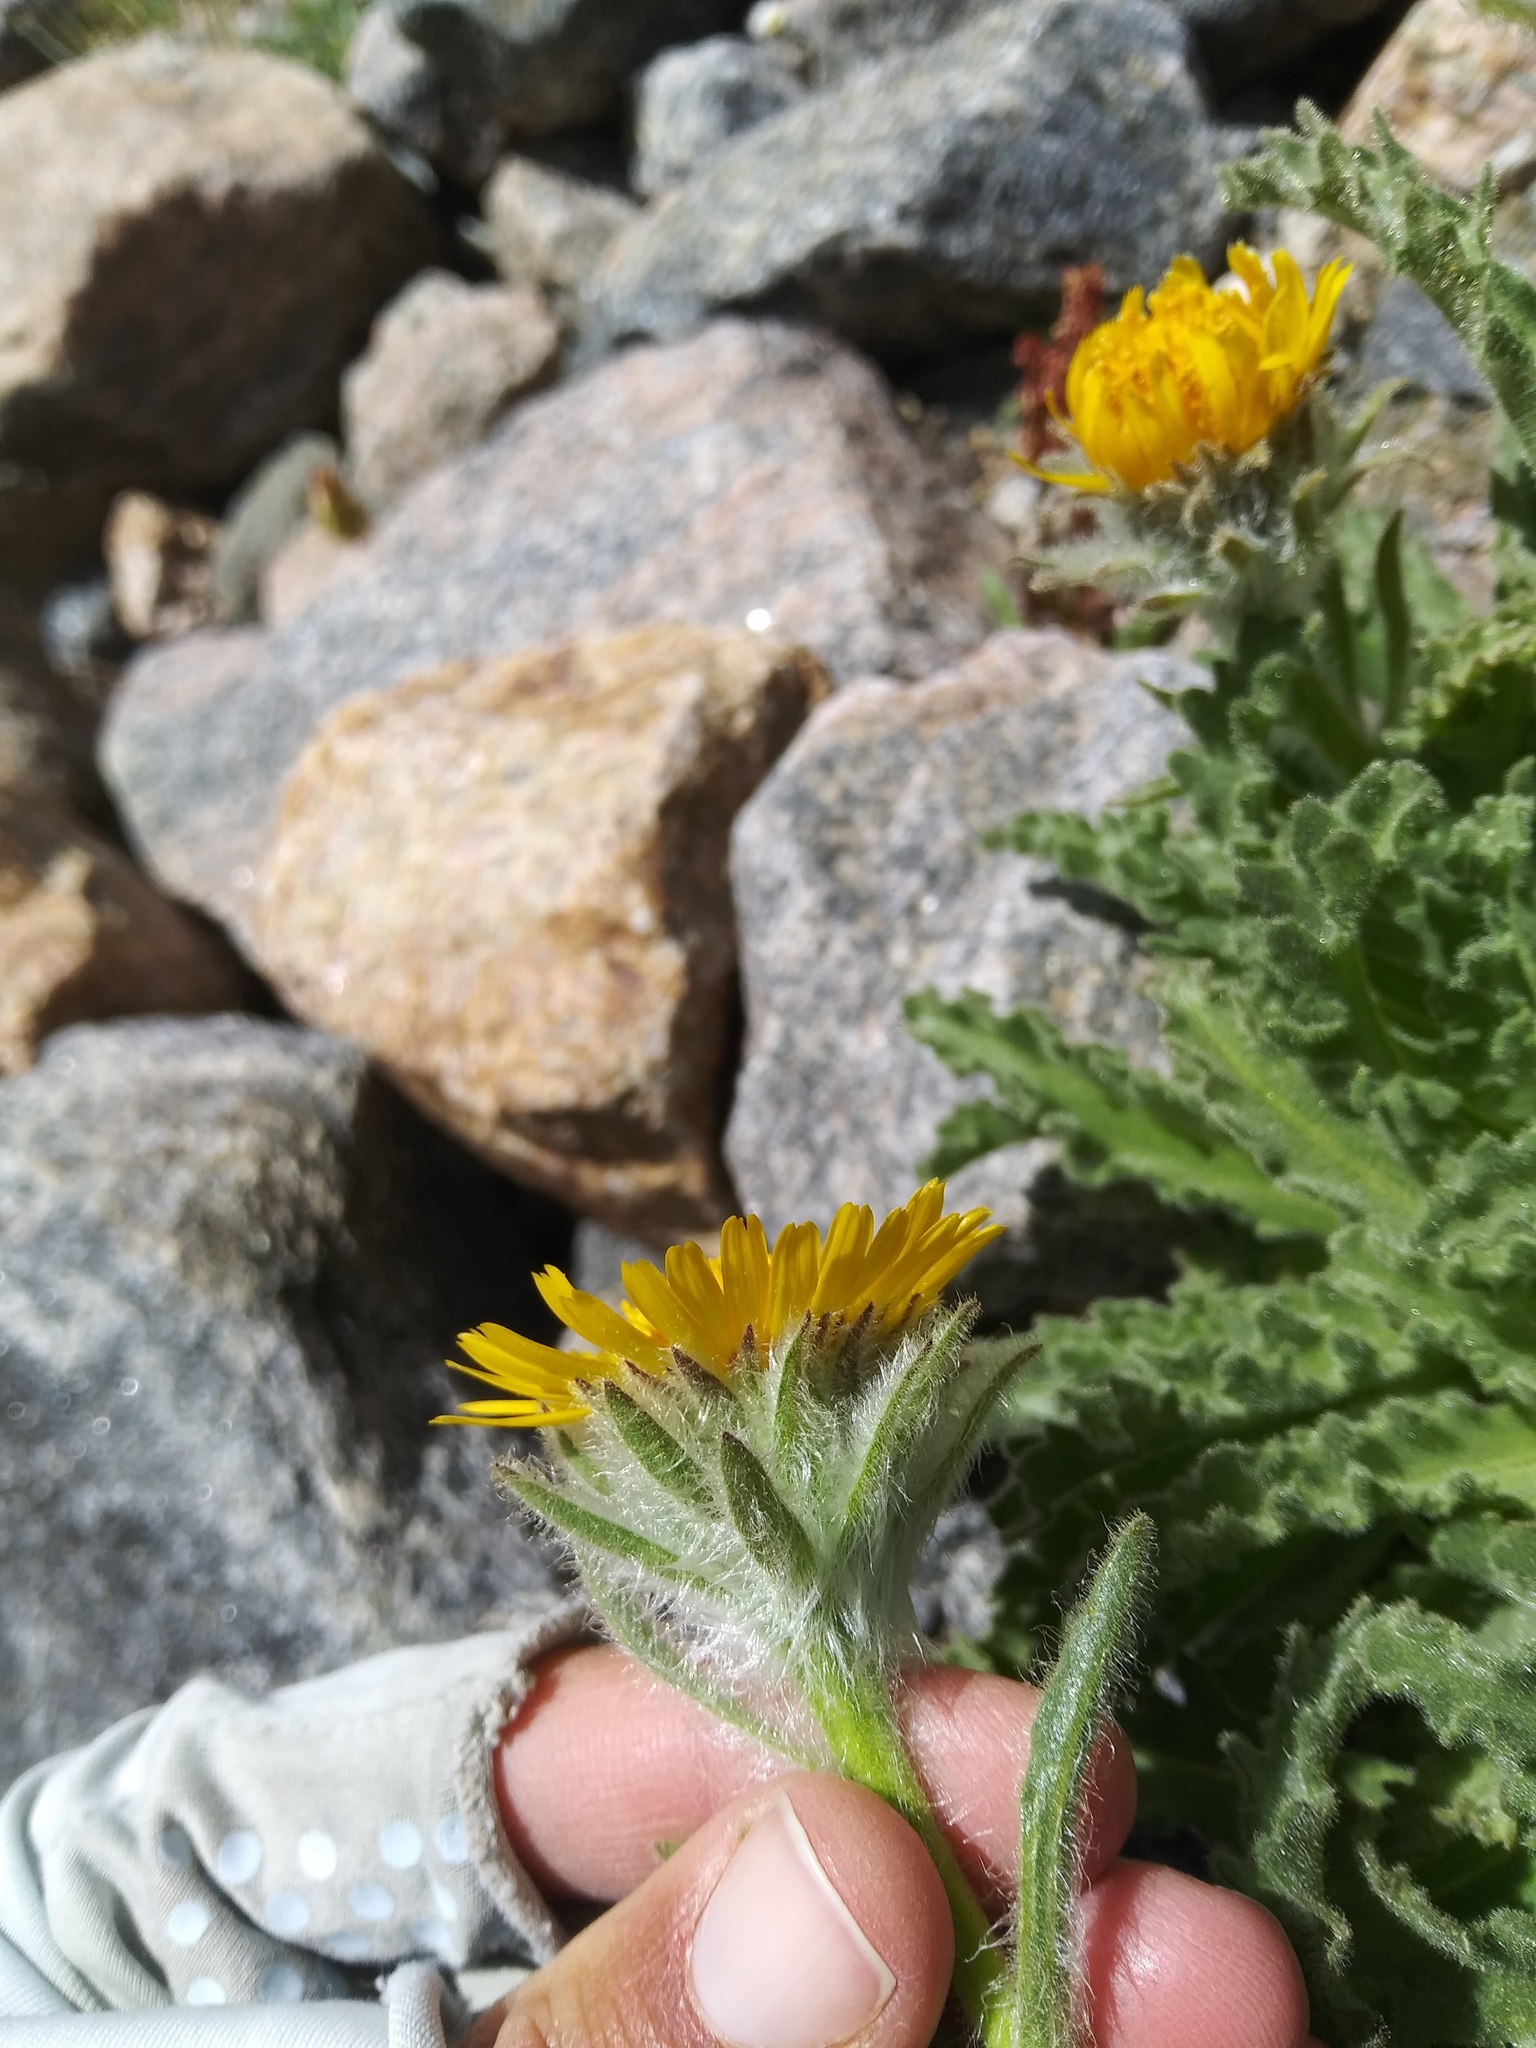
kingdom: Plantae
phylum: Tracheophyta
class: Magnoliopsida
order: Asterales
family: Asteraceae
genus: Hulsea
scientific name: Hulsea algida
